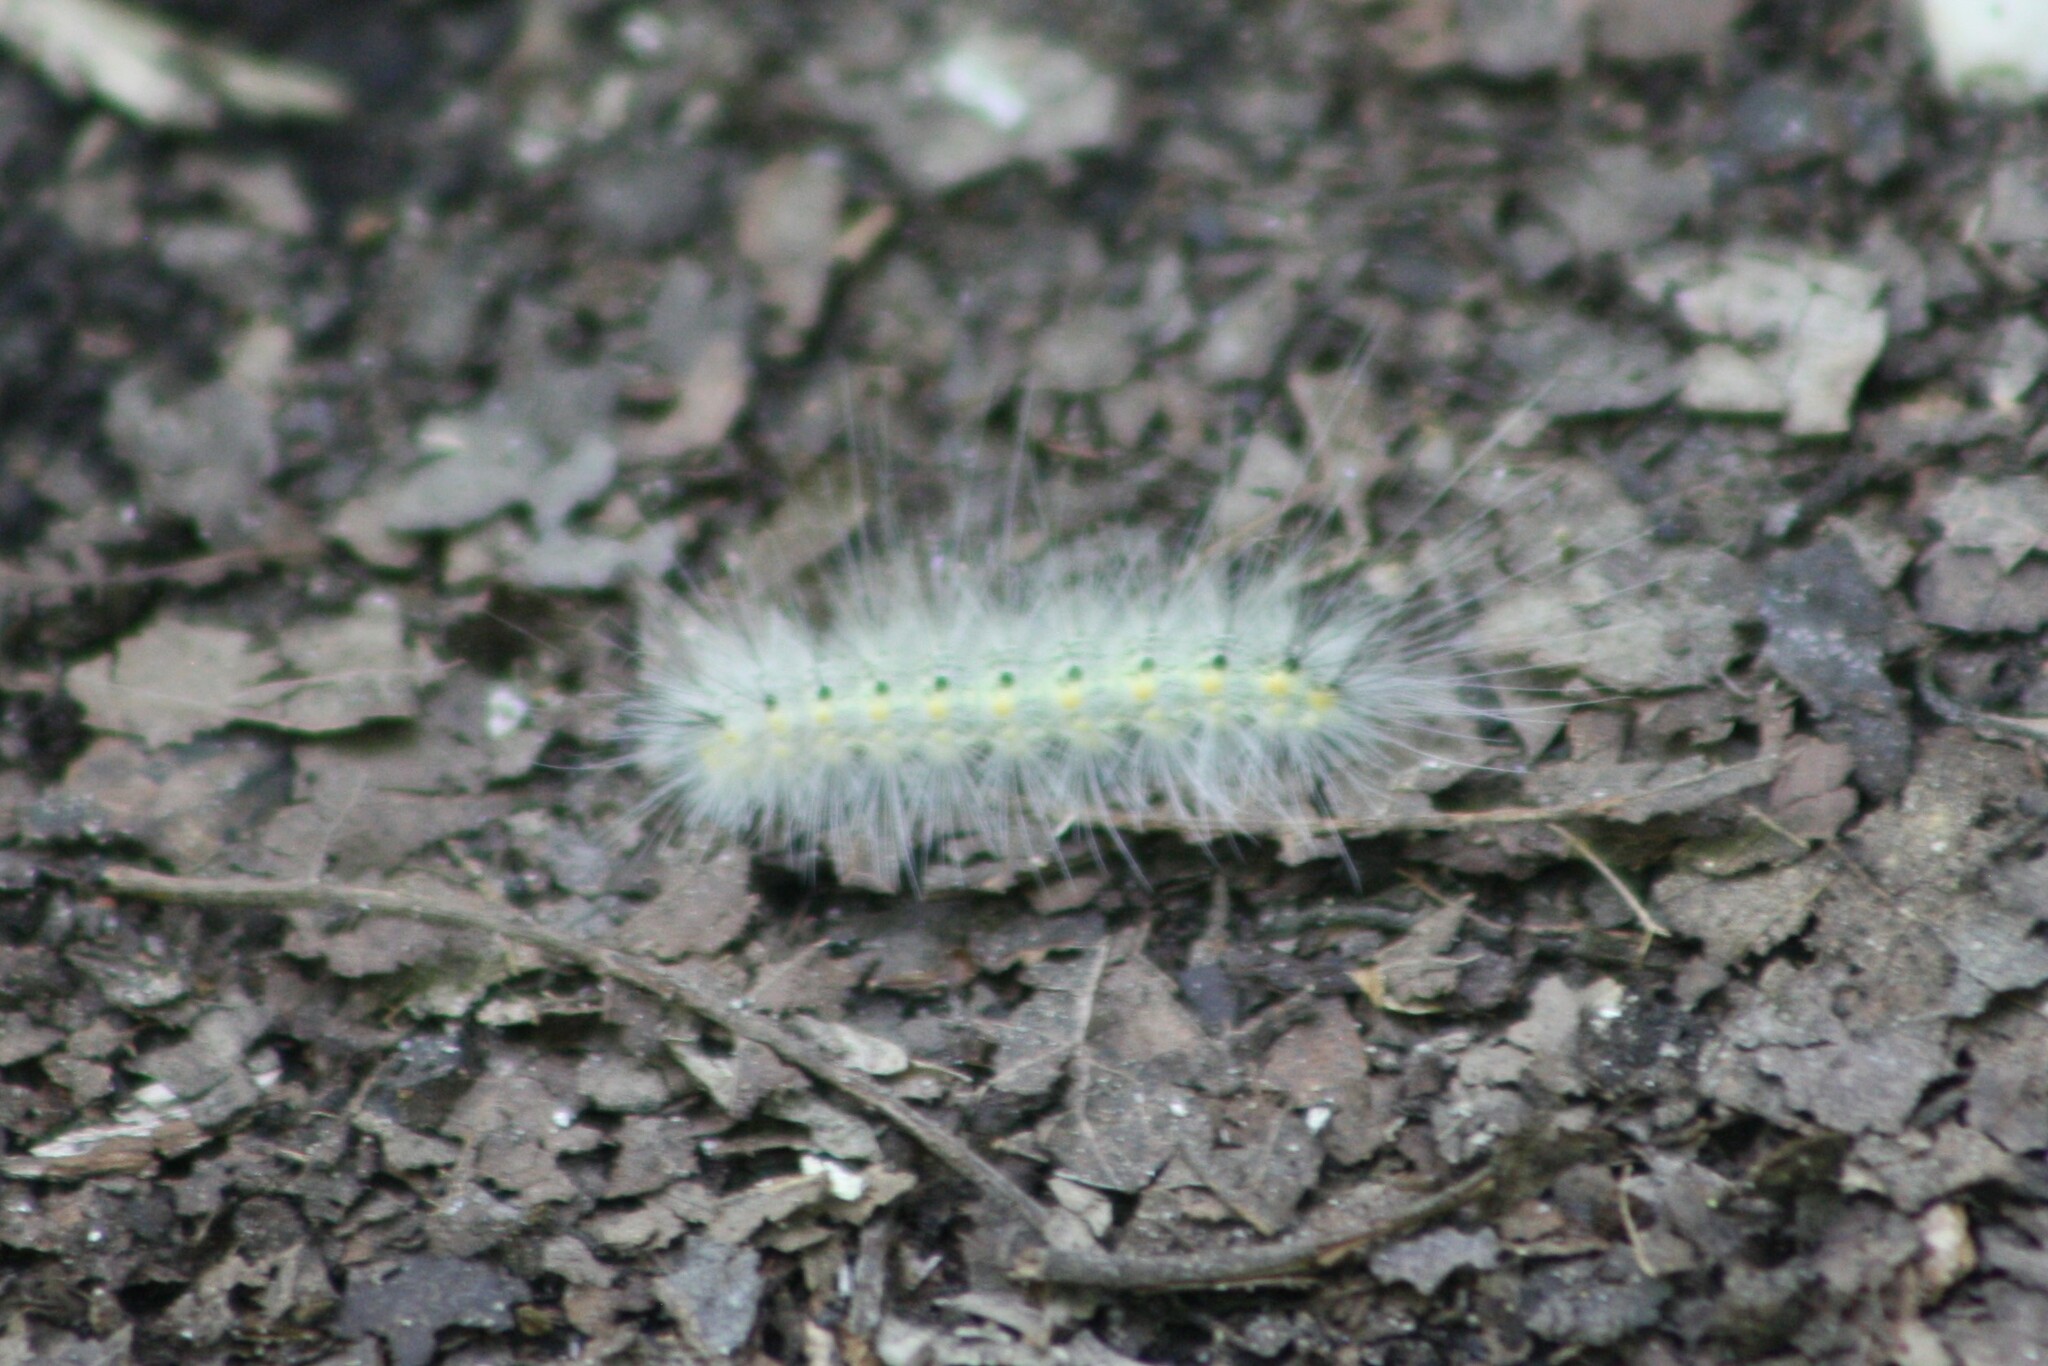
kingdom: Animalia
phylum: Arthropoda
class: Insecta
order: Lepidoptera
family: Erebidae
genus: Hyphantria
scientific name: Hyphantria cunea
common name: American white moth
